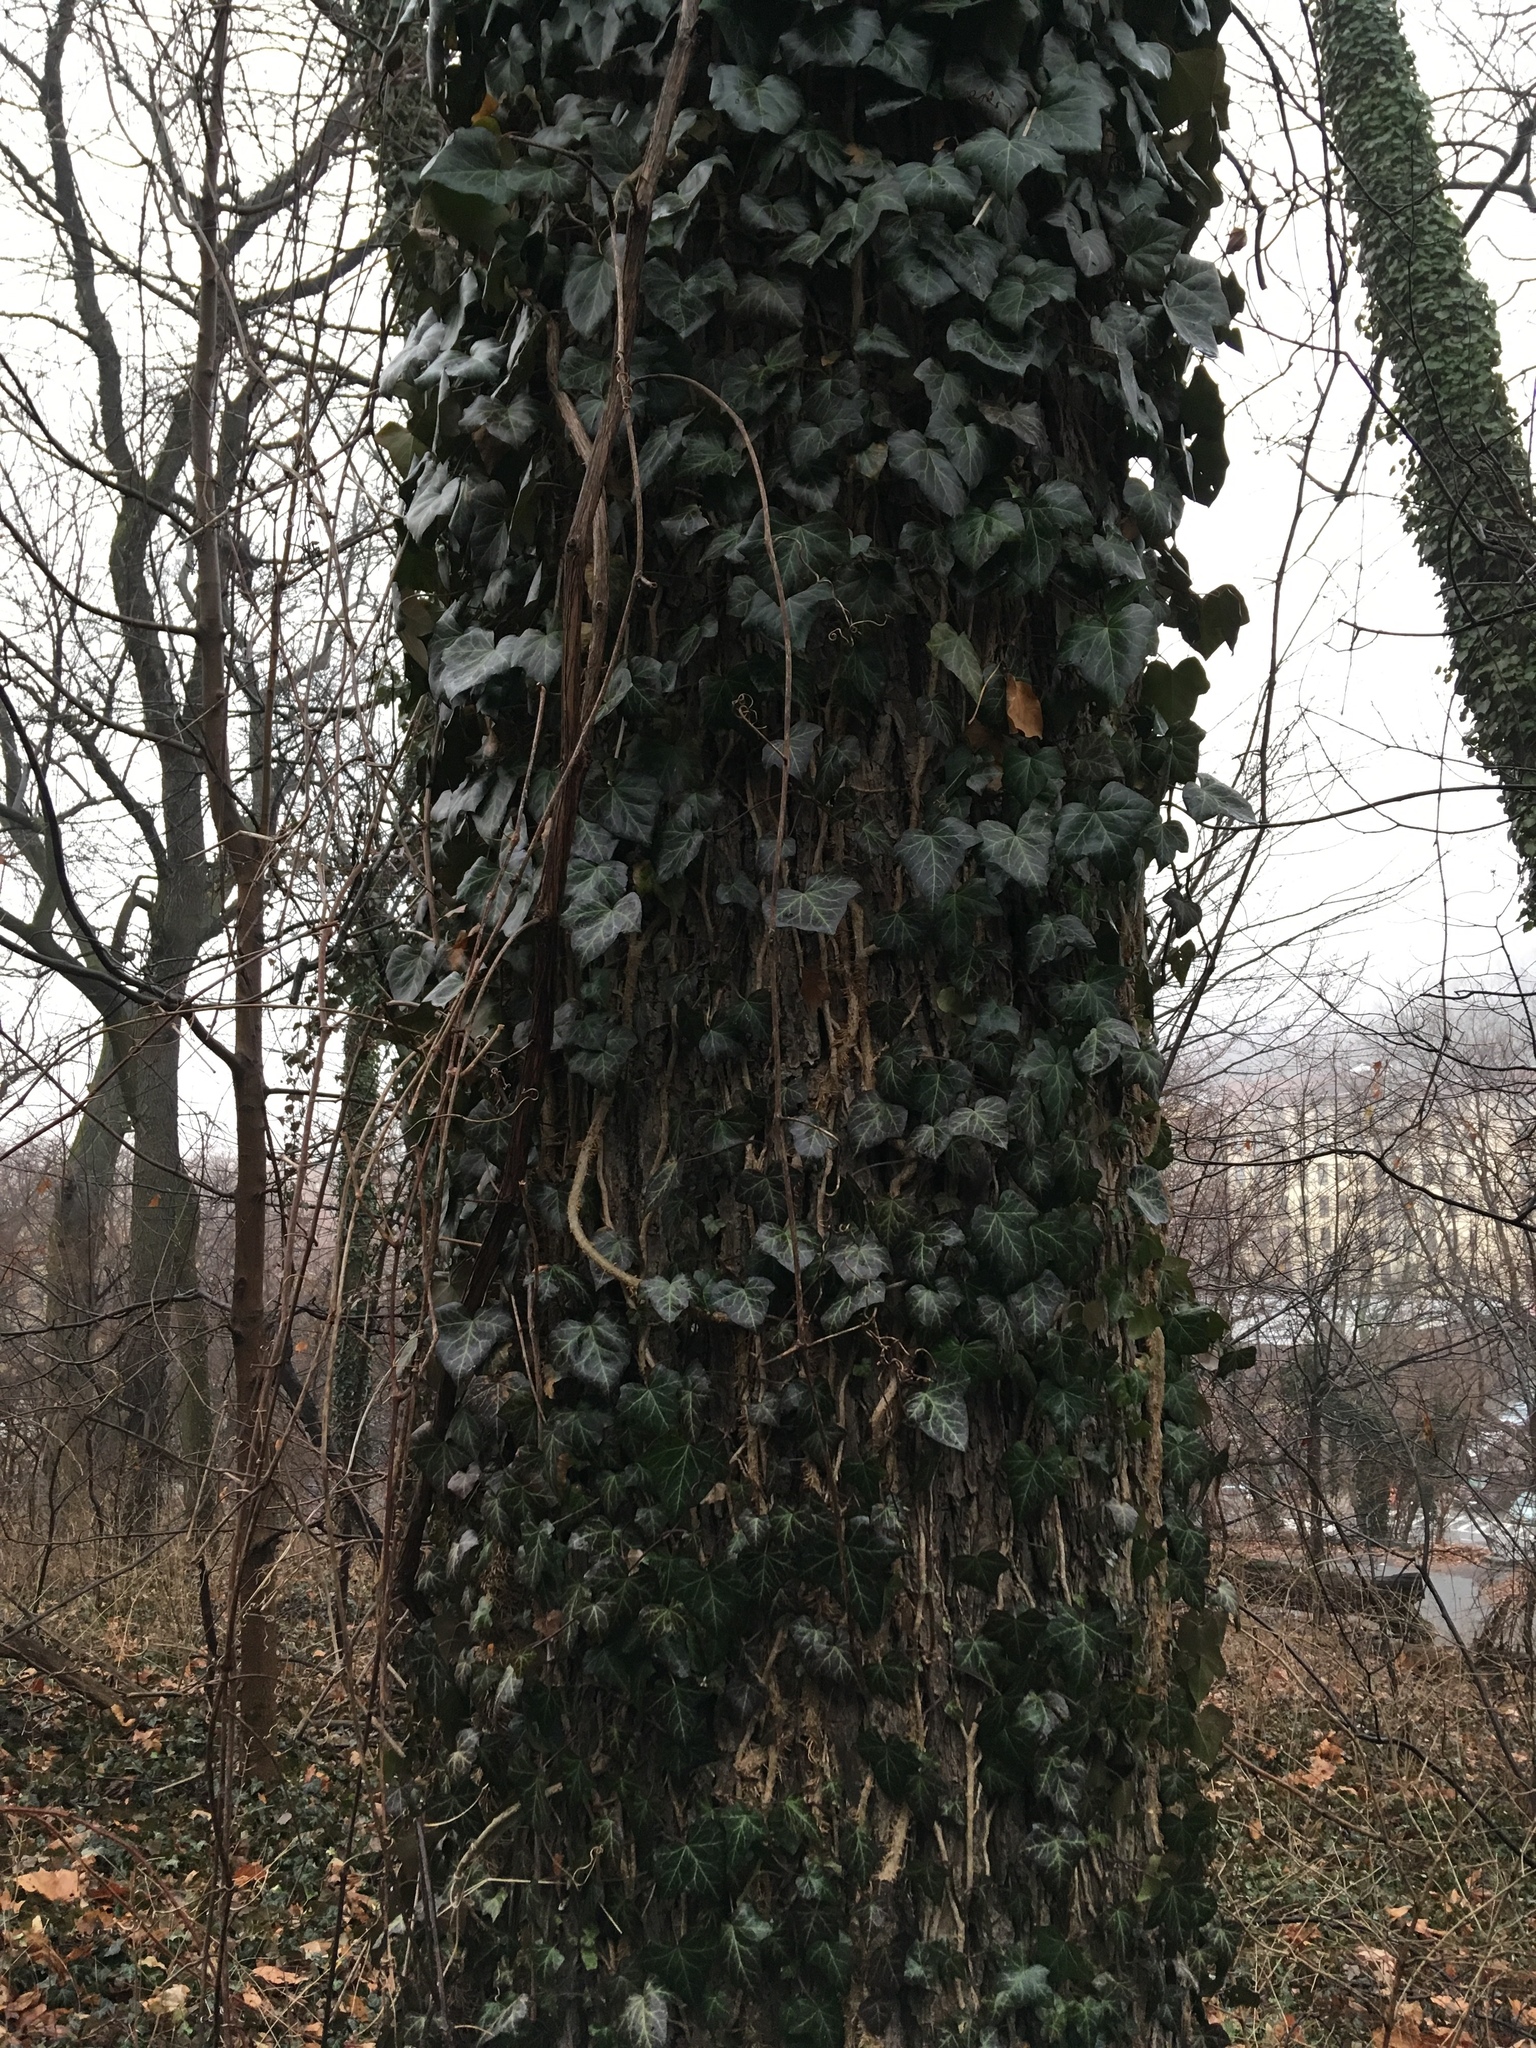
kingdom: Plantae
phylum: Tracheophyta
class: Magnoliopsida
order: Apiales
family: Araliaceae
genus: Hedera
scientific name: Hedera helix
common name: Ivy
